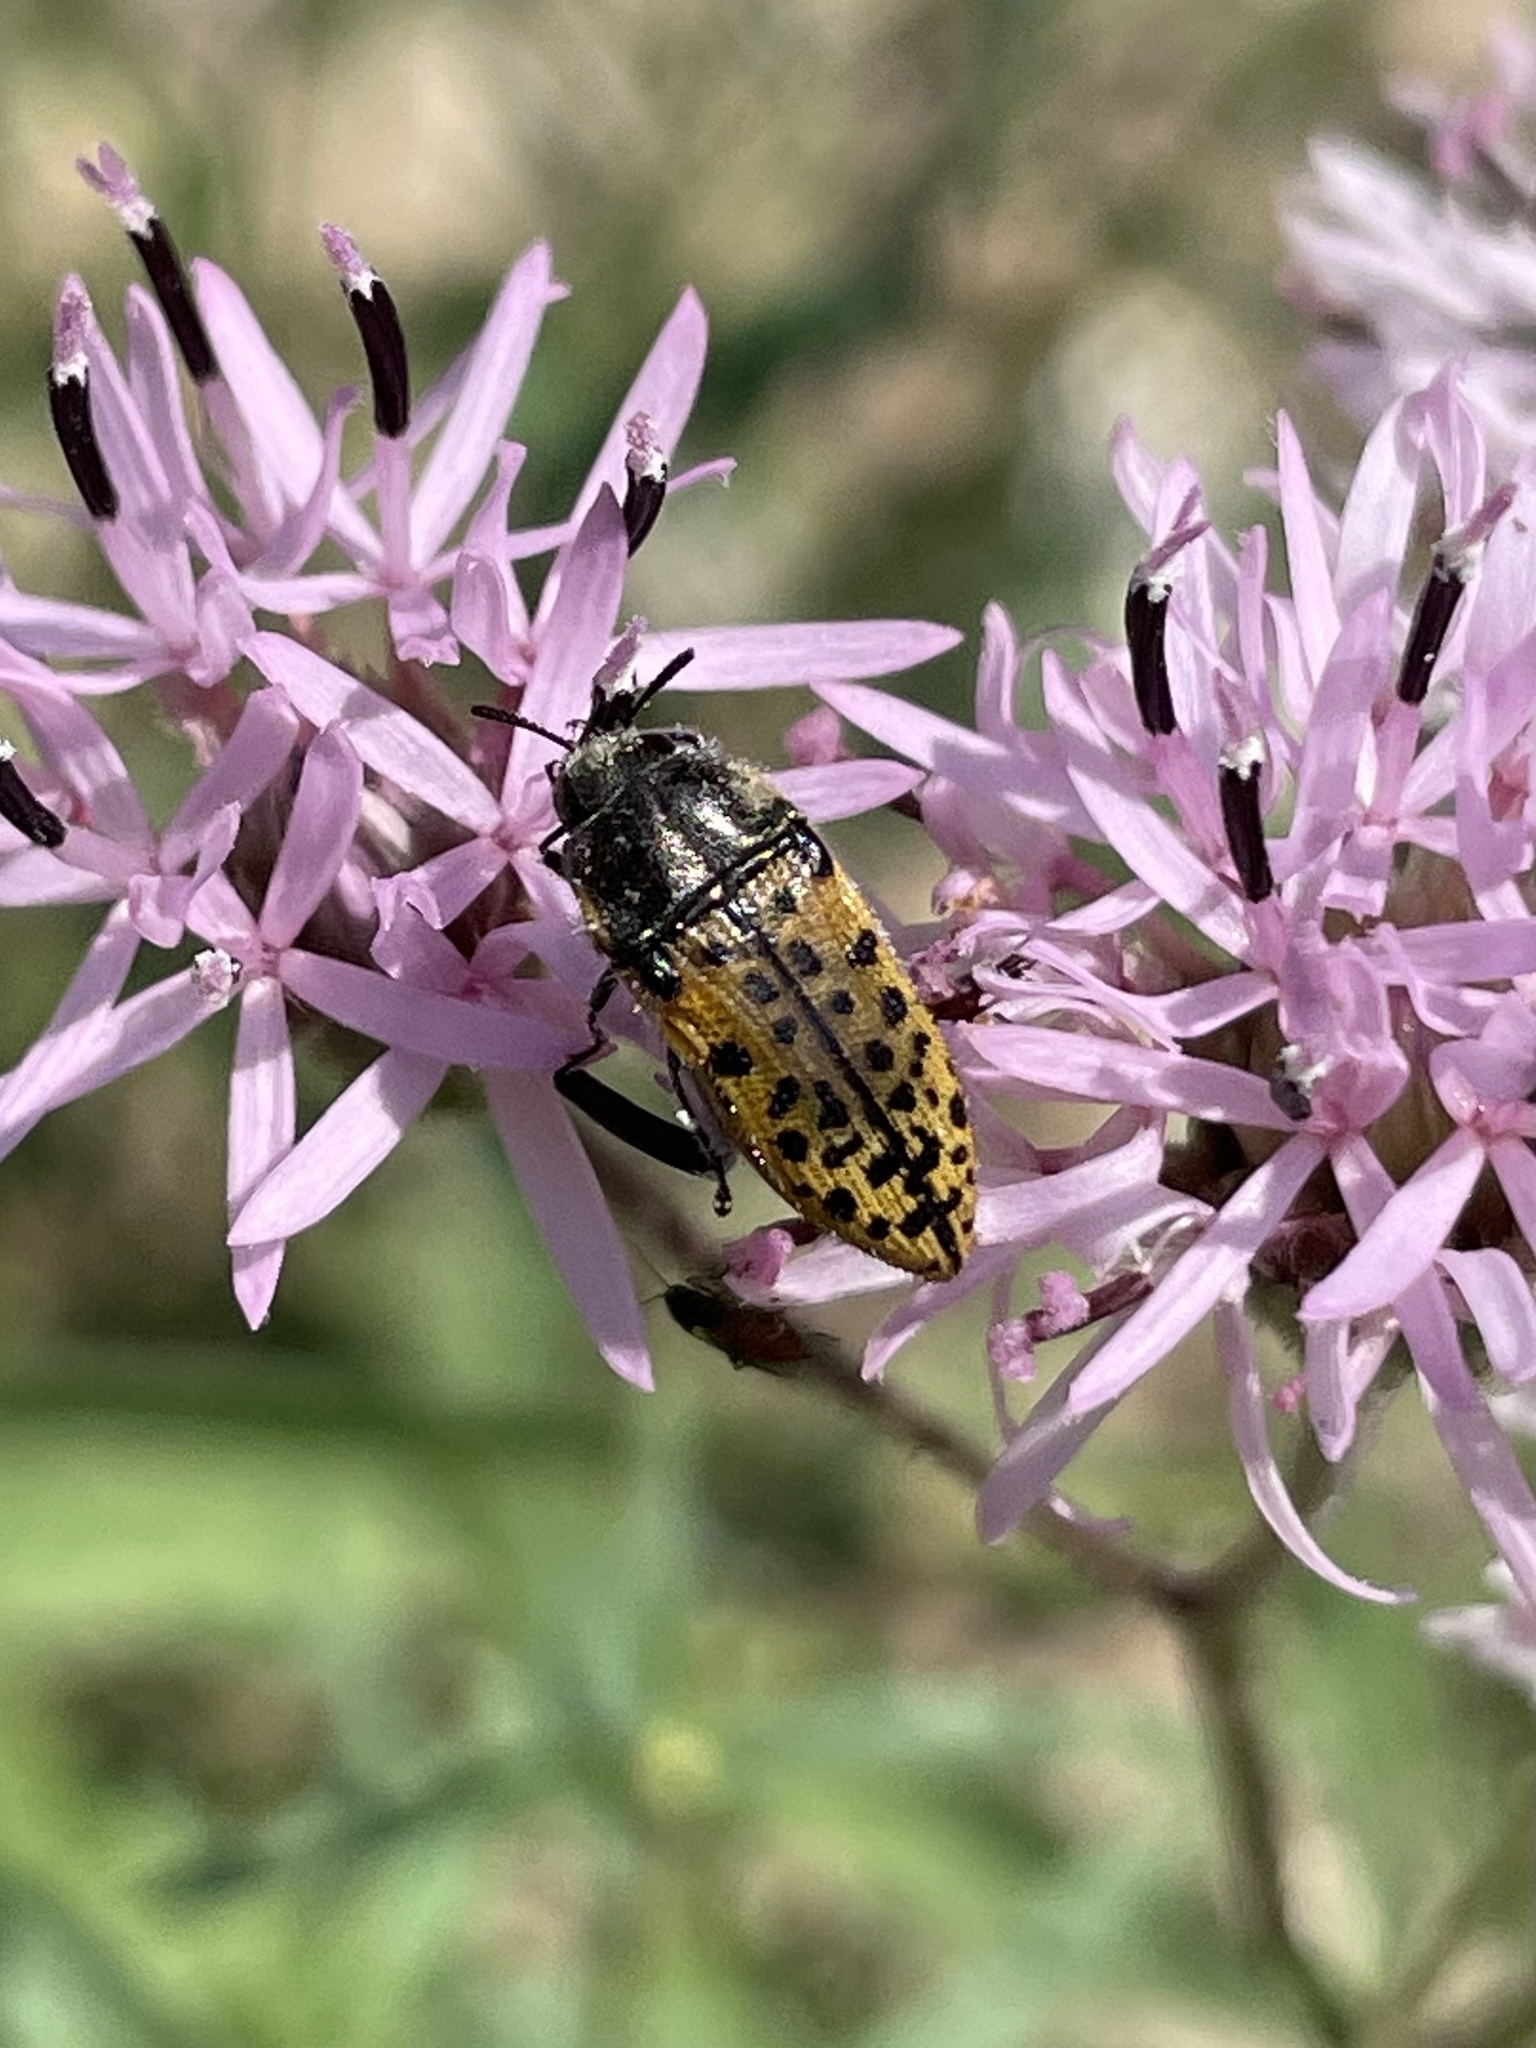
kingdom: Animalia
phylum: Arthropoda
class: Insecta
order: Coleoptera
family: Buprestidae
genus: Acmaeodera
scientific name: Acmaeodera princeps
